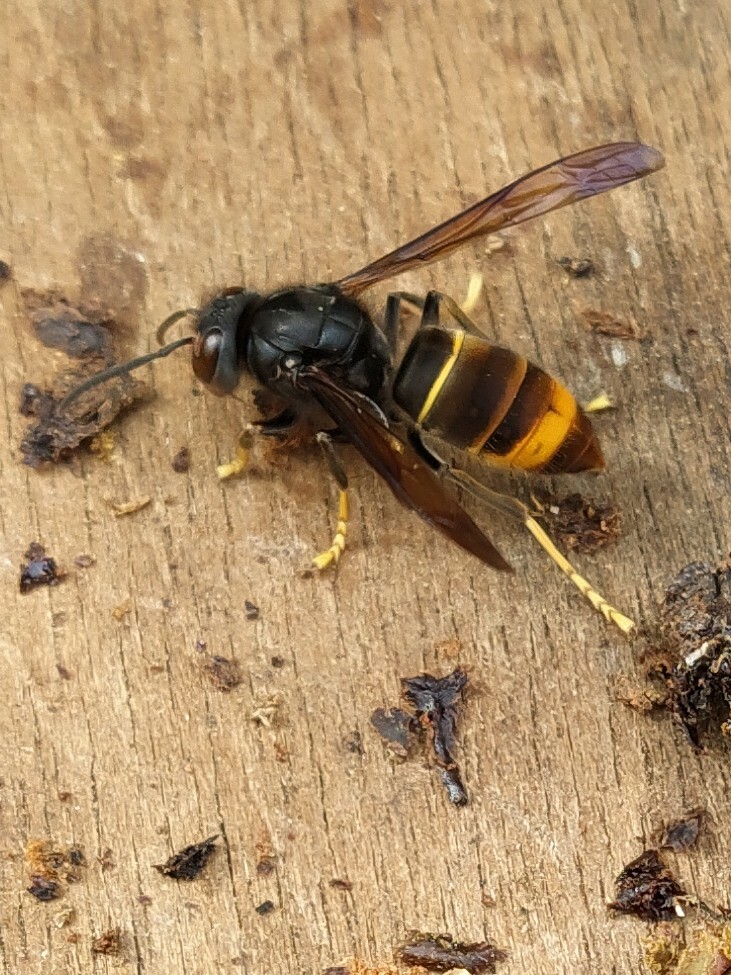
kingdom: Animalia
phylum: Arthropoda
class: Insecta
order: Hymenoptera
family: Vespidae
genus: Vespa
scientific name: Vespa velutina
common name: Asian hornet
